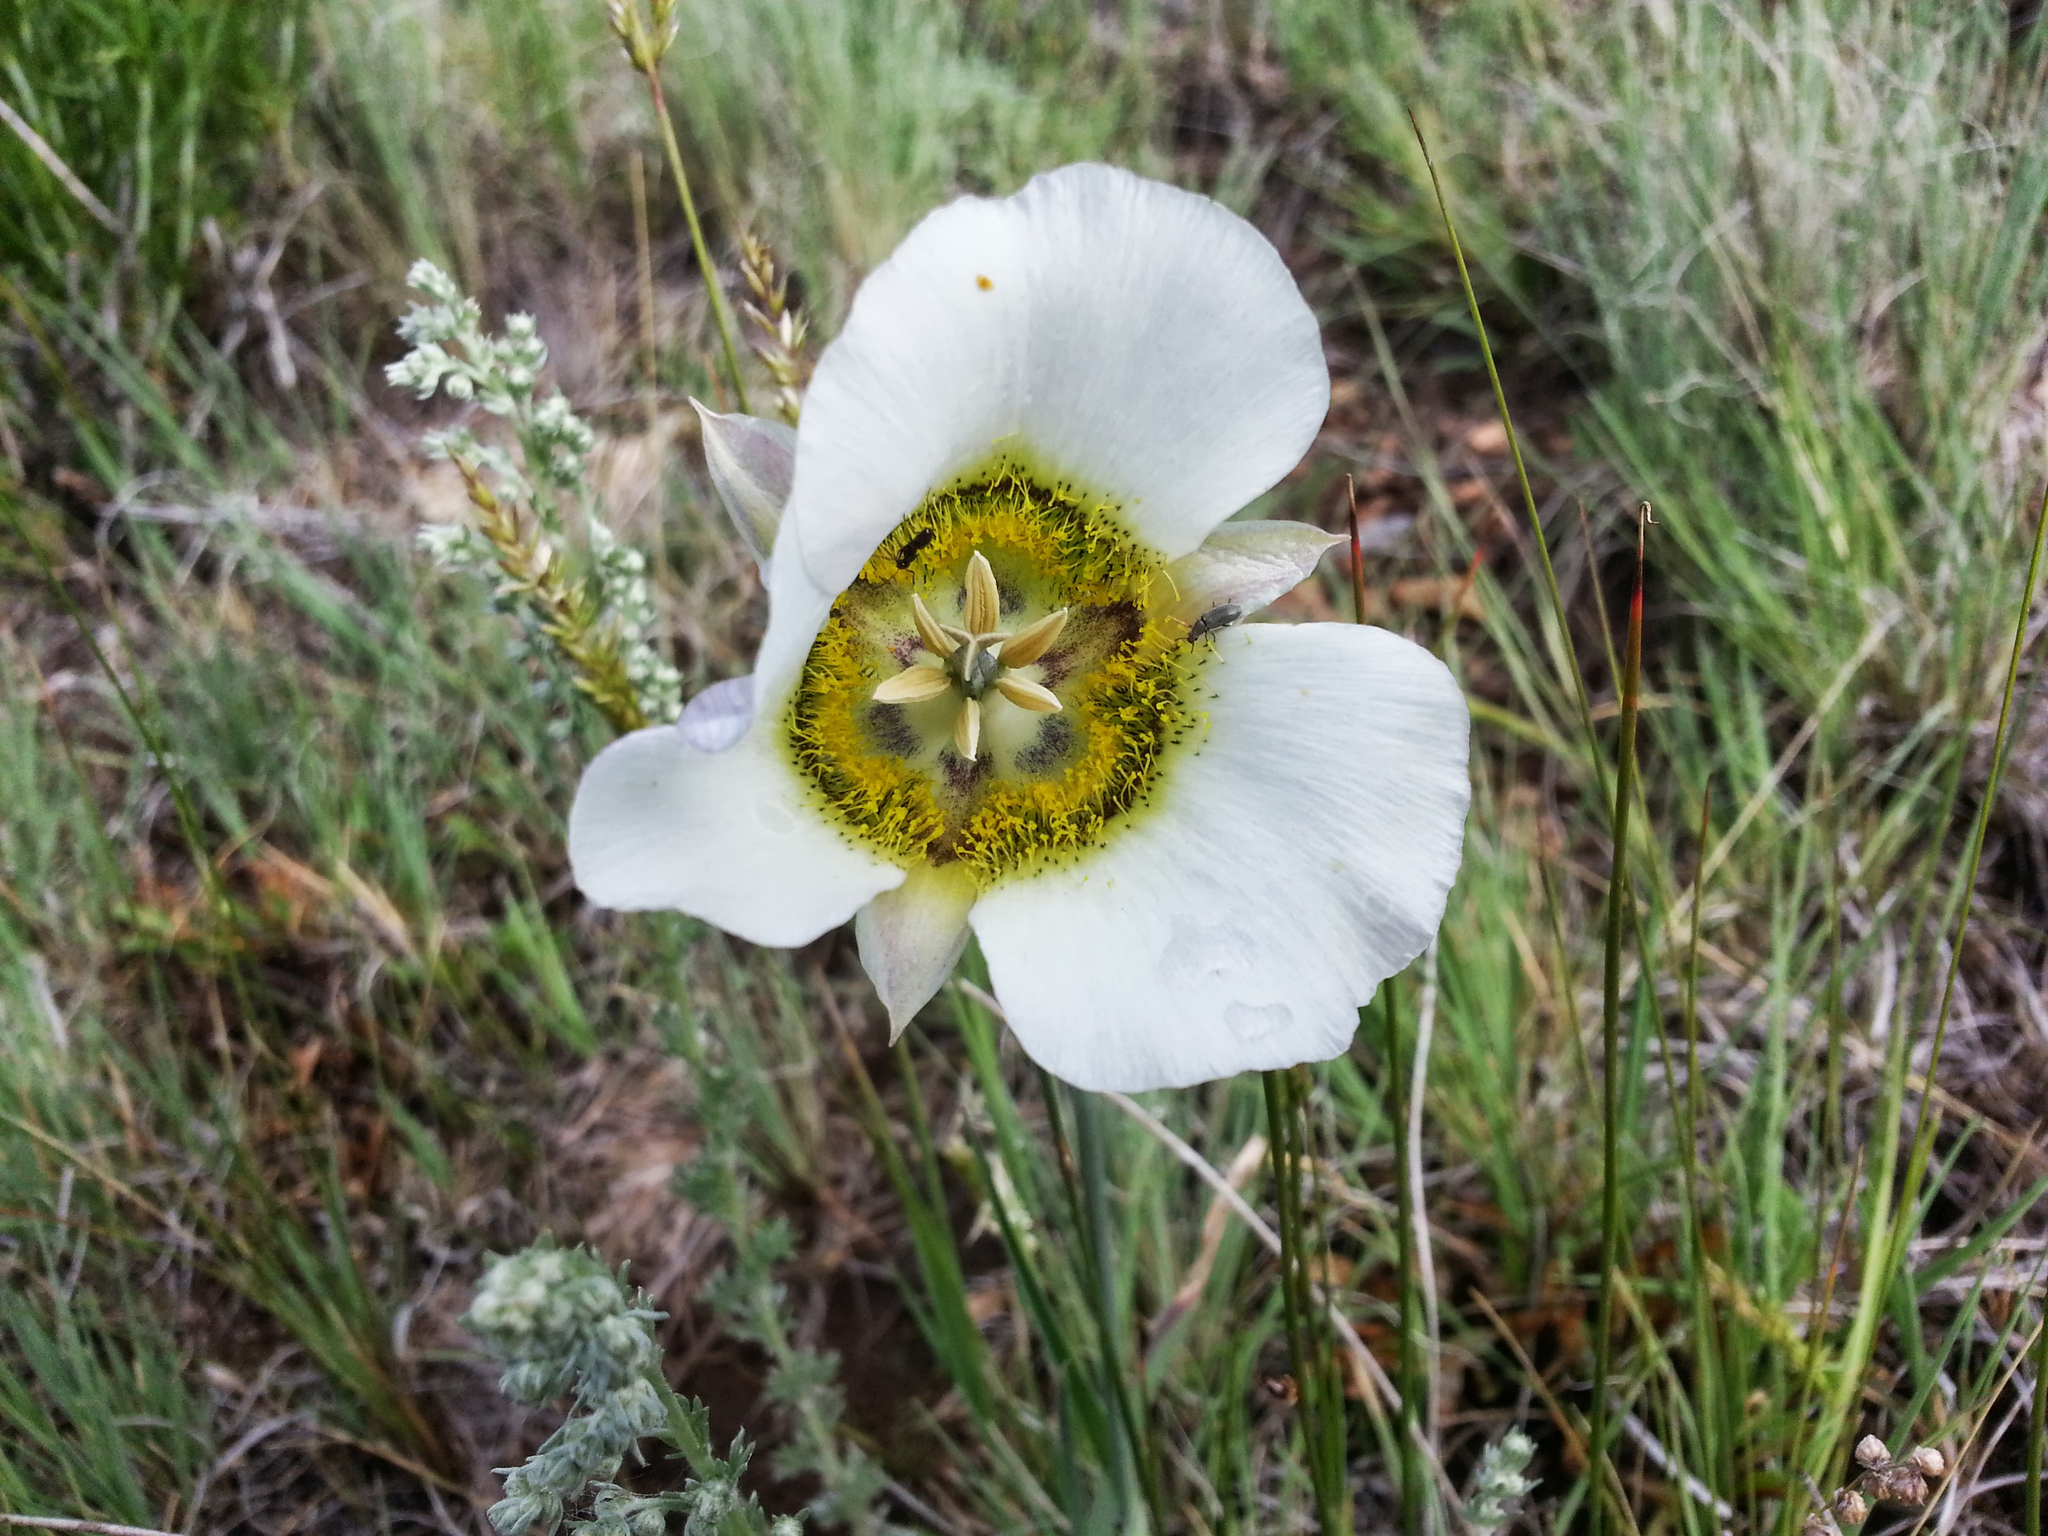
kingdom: Plantae
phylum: Tracheophyta
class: Liliopsida
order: Liliales
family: Liliaceae
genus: Calochortus
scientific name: Calochortus gunnisonii
